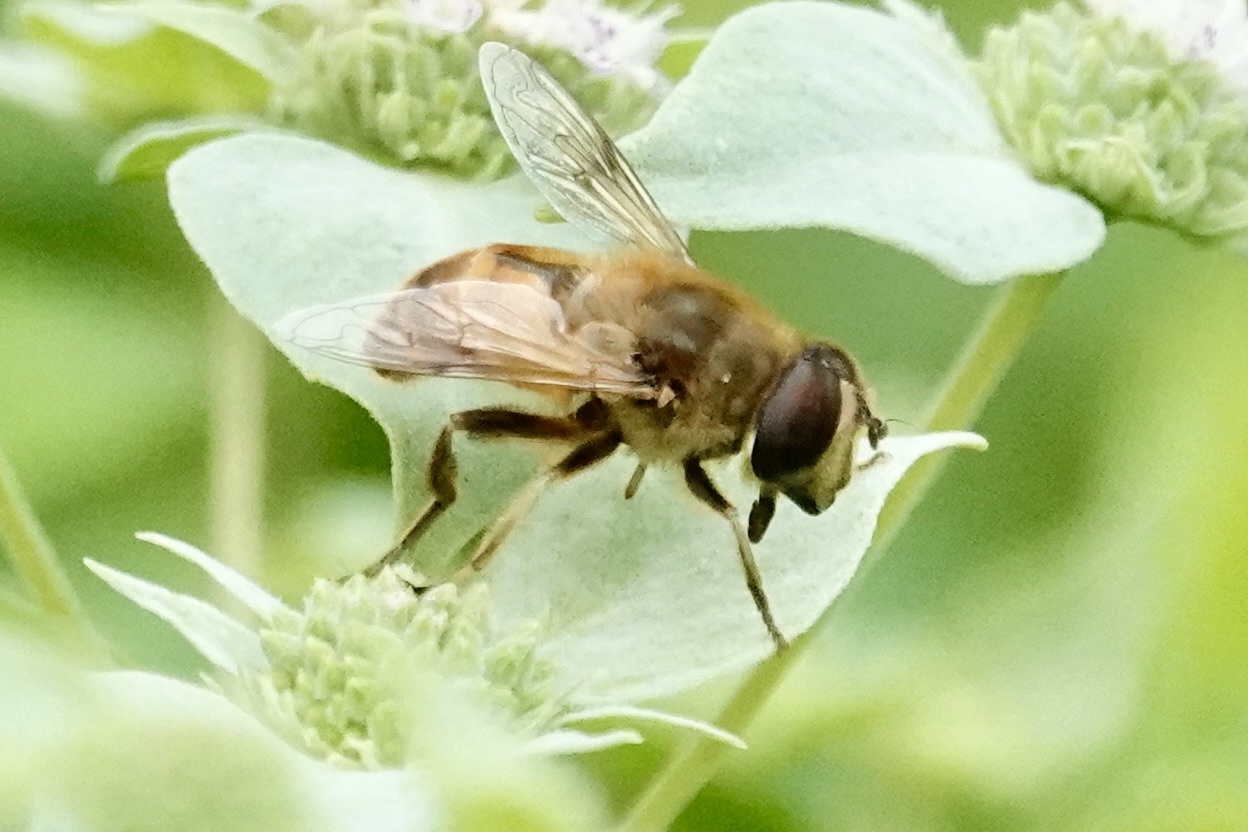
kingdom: Animalia
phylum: Arthropoda
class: Insecta
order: Diptera
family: Syrphidae
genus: Eristalis
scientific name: Eristalis tenax
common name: Drone fly
